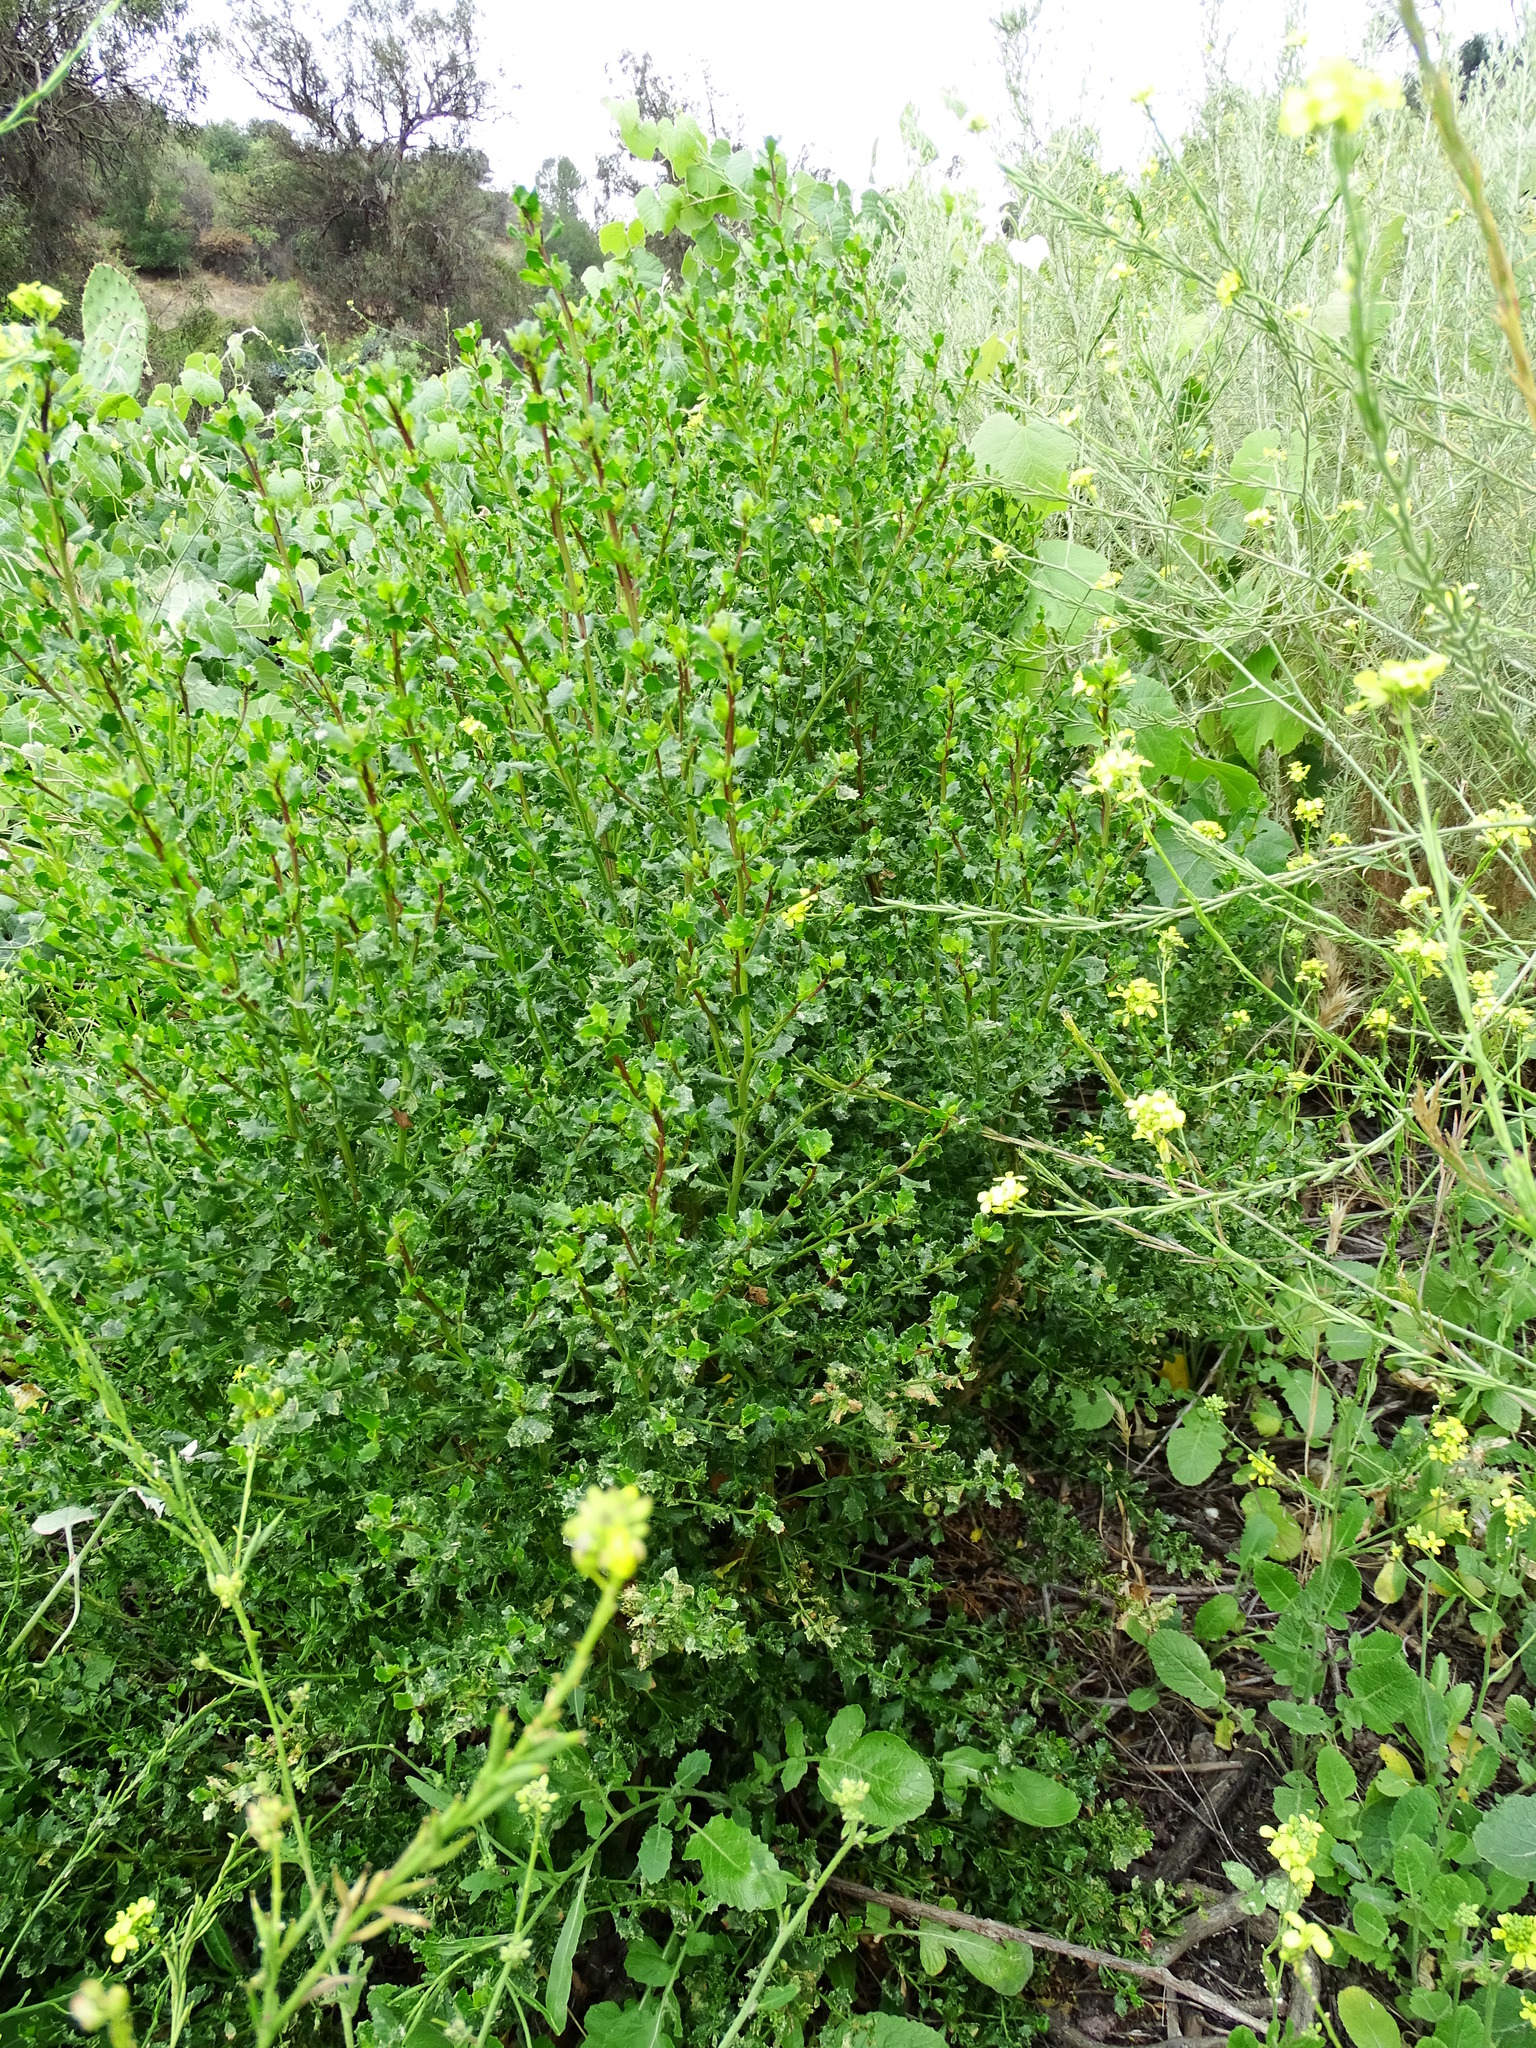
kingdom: Plantae
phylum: Tracheophyta
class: Magnoliopsida
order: Asterales
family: Asteraceae
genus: Baccharis
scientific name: Baccharis pilularis
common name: Coyotebrush
